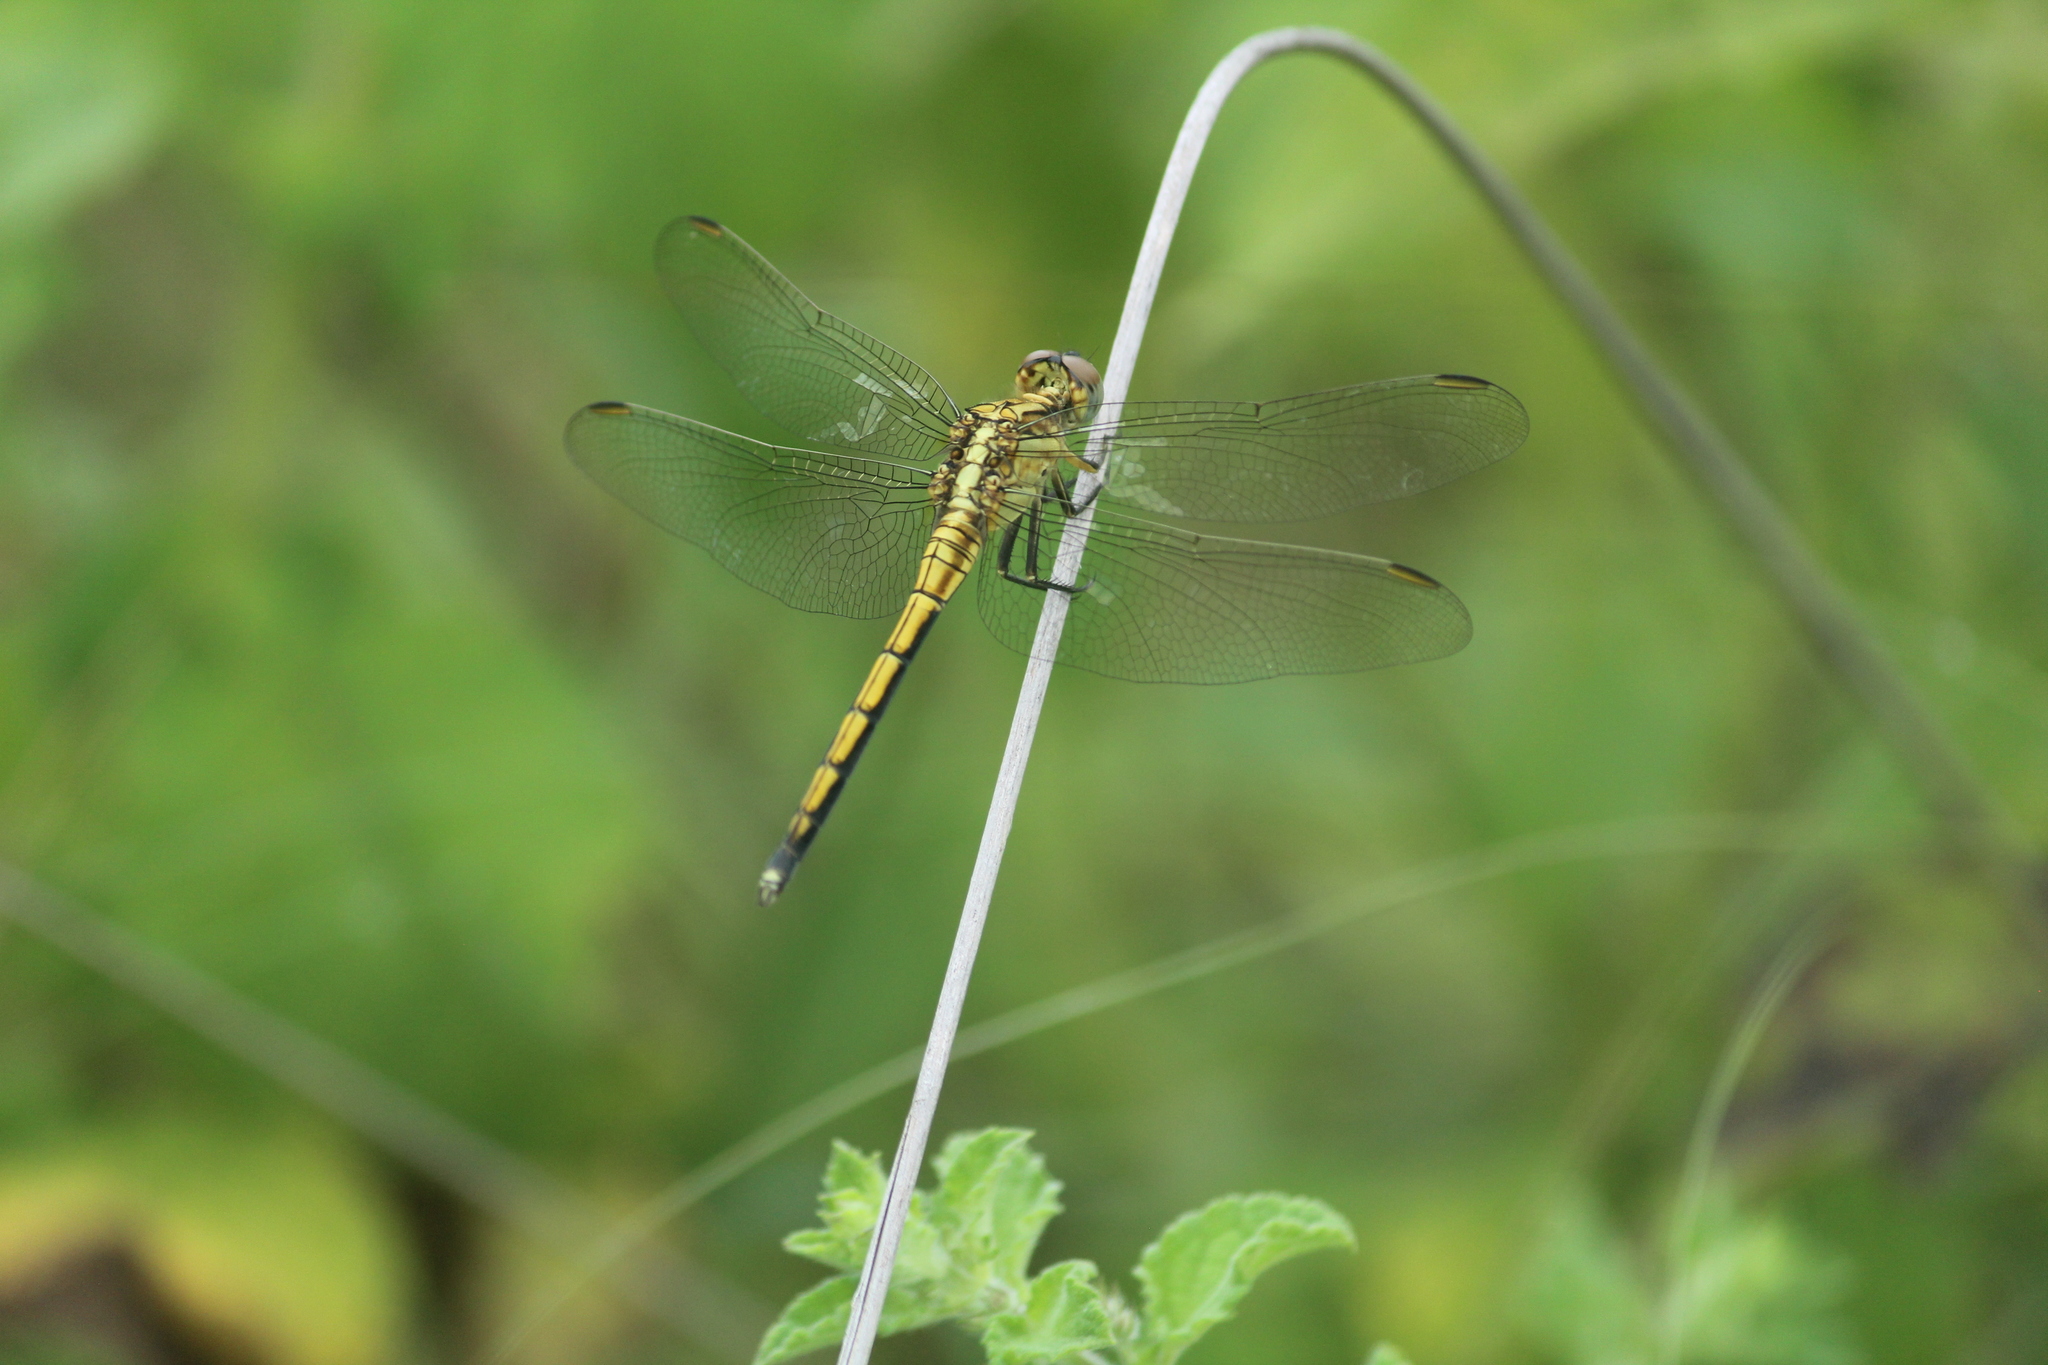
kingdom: Animalia
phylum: Arthropoda
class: Insecta
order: Odonata
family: Libellulidae
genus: Orthetrum
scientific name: Orthetrum luzonicum
